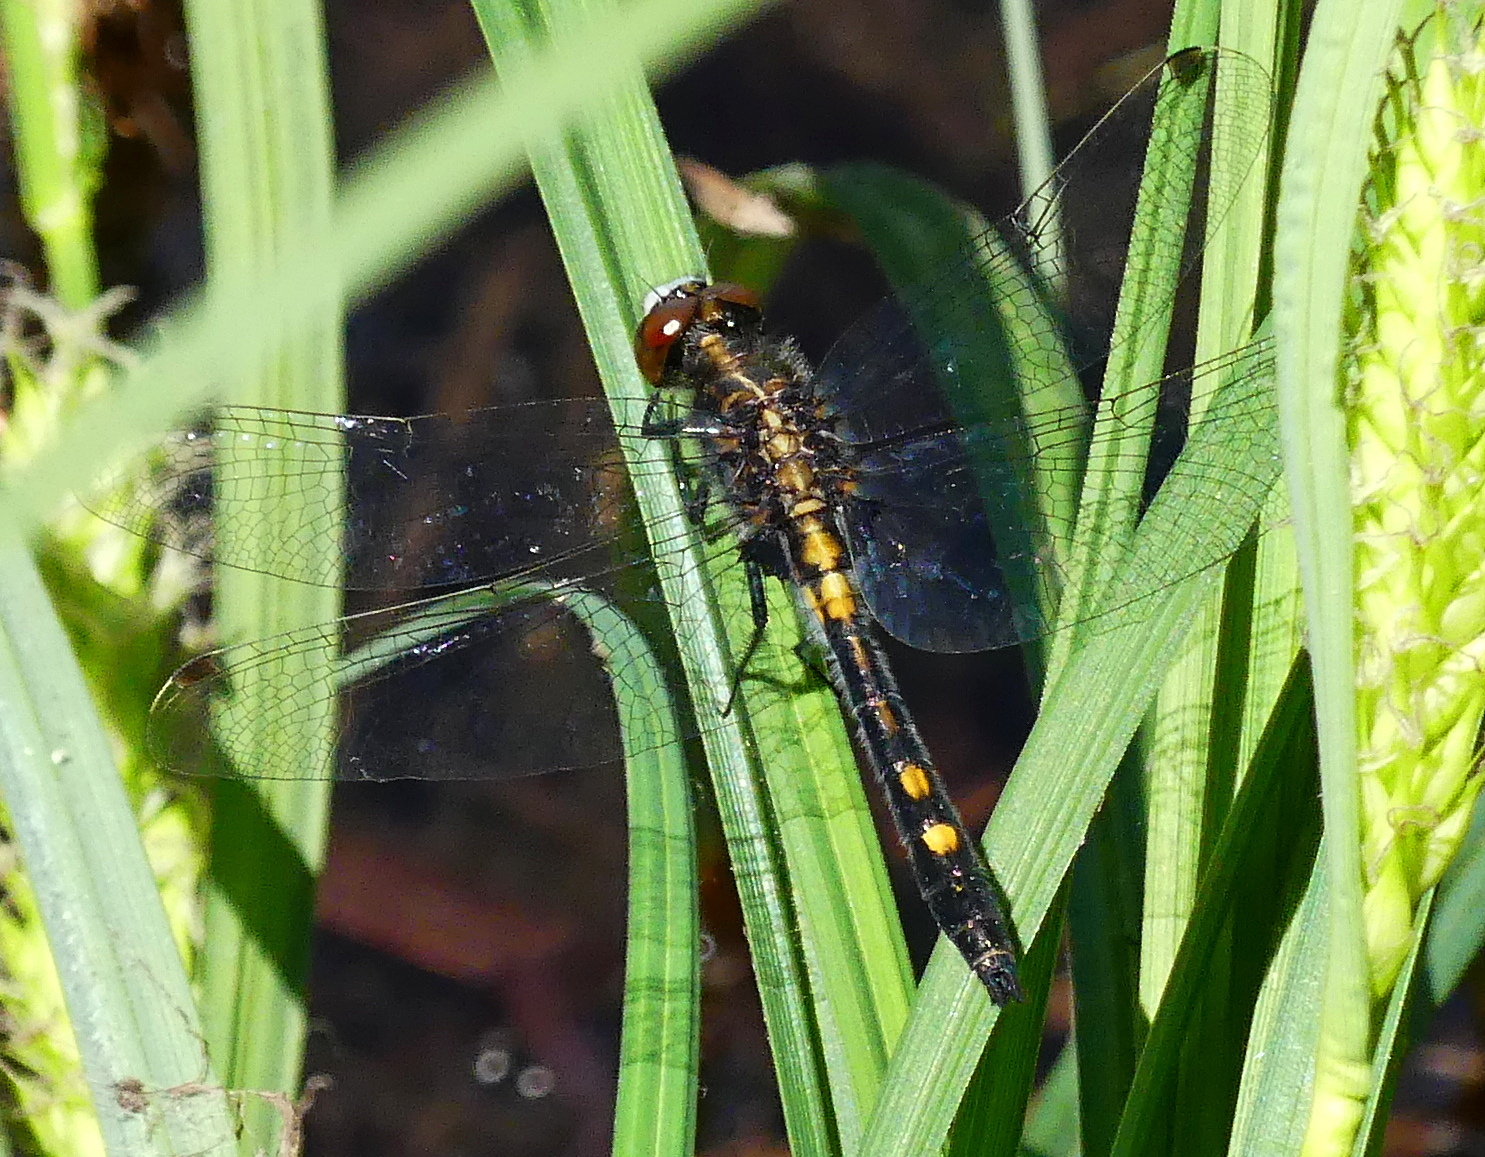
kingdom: Animalia
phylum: Arthropoda
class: Insecta
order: Odonata
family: Libellulidae
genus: Leucorrhinia
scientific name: Leucorrhinia intacta
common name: Dot-tailed whiteface
